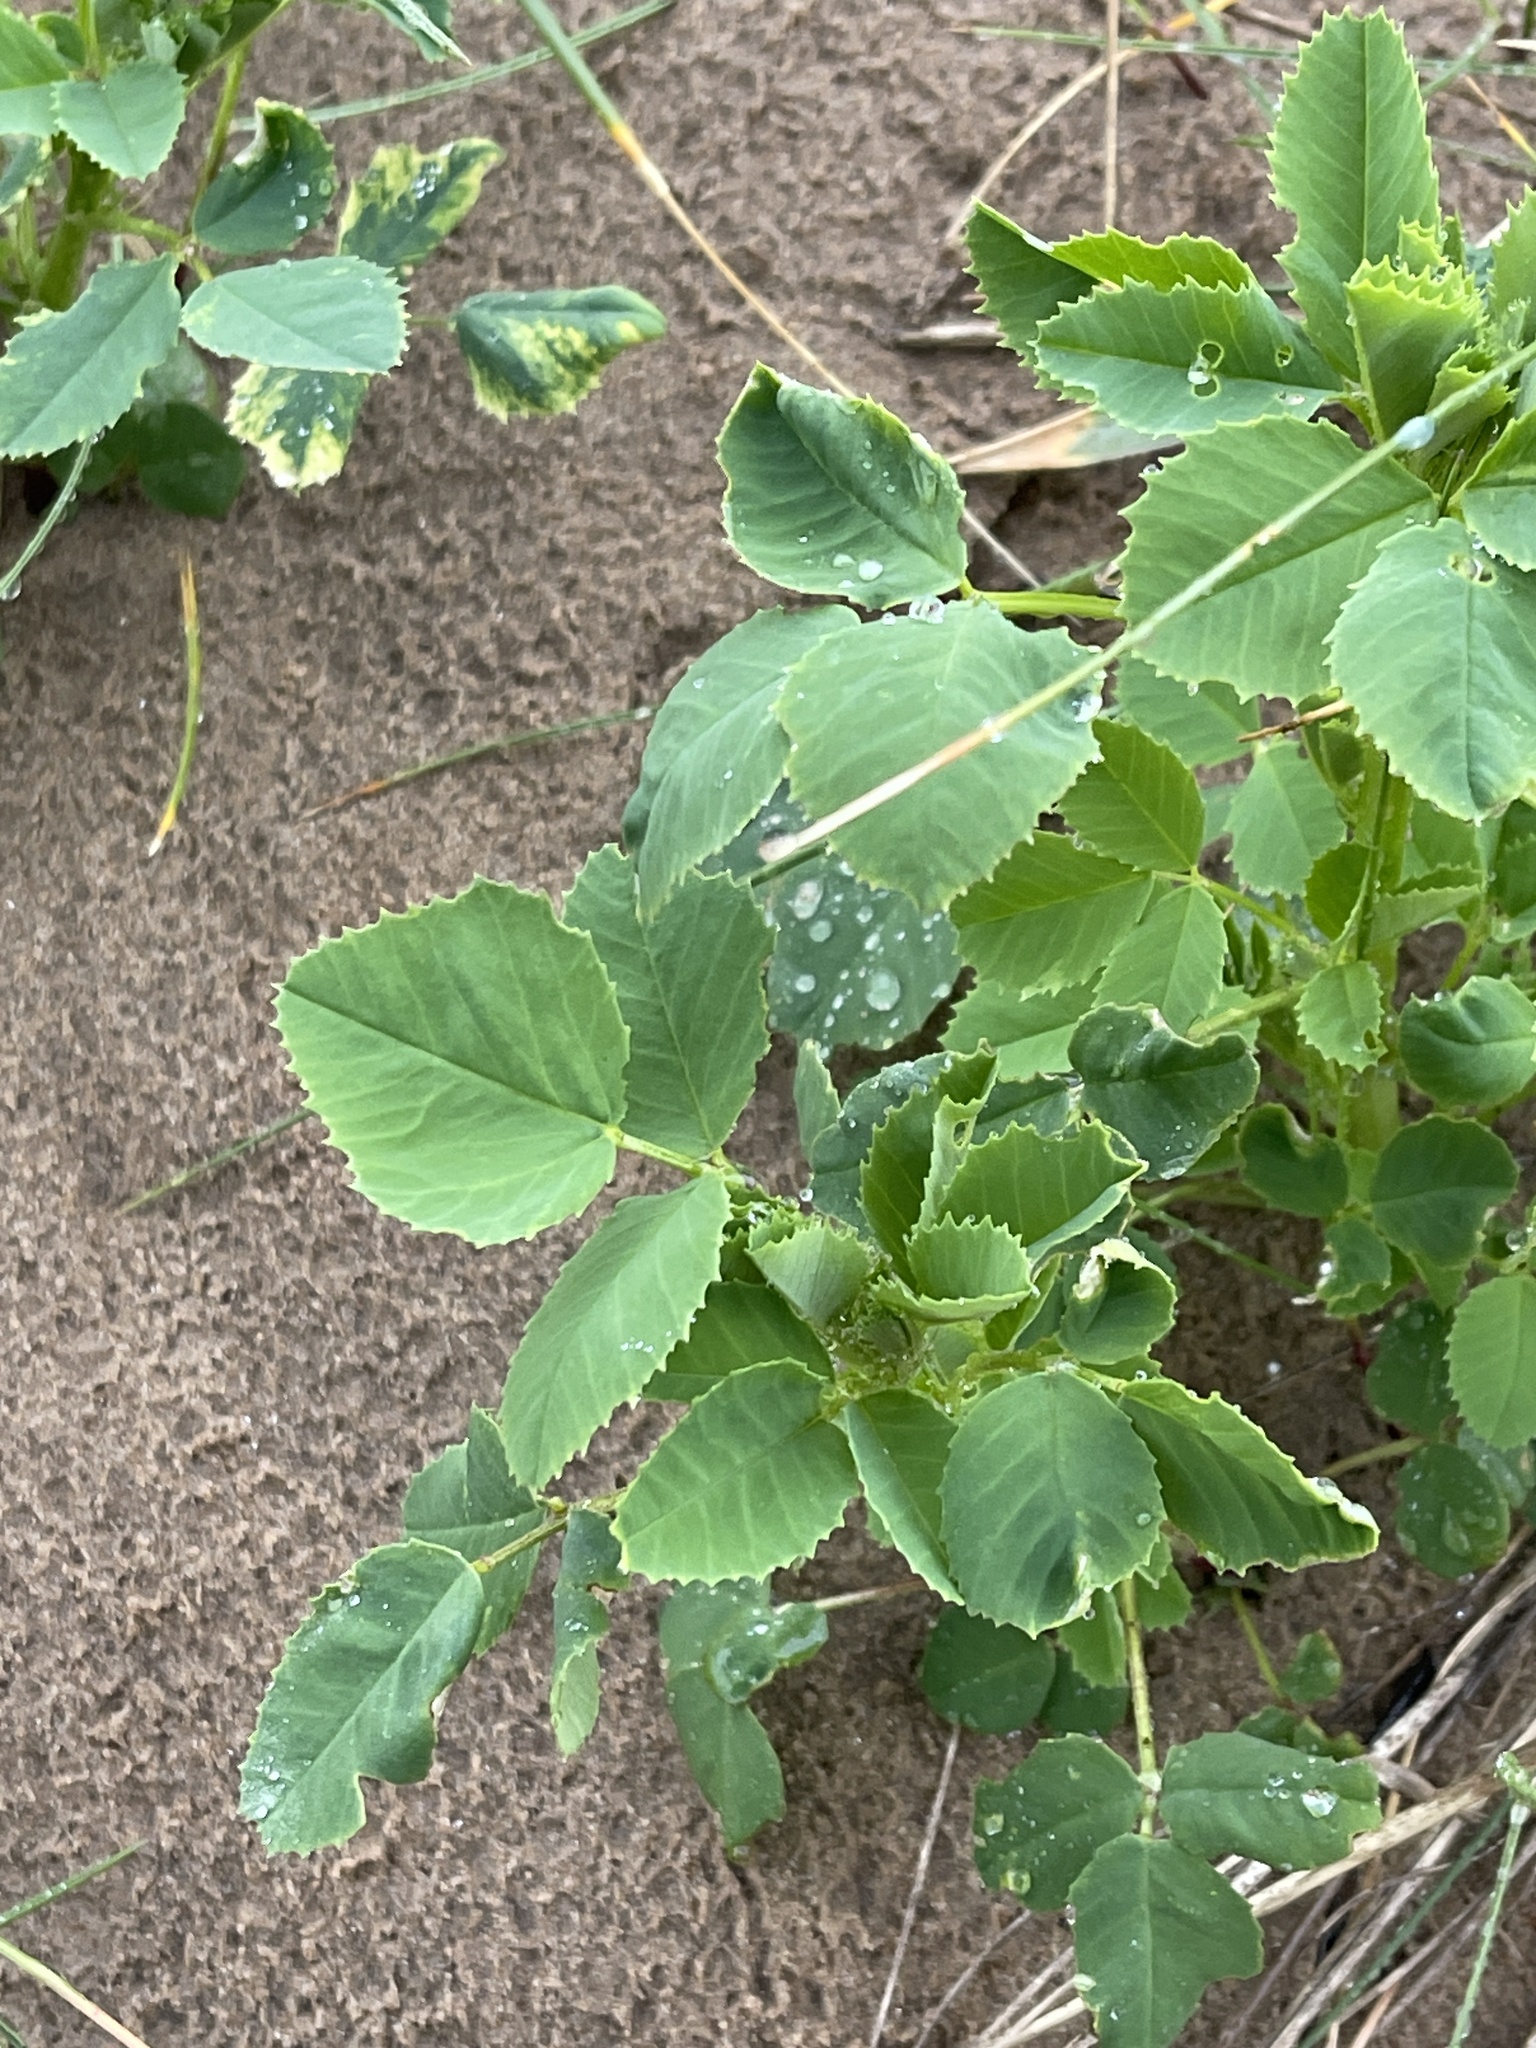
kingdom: Plantae
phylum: Tracheophyta
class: Magnoliopsida
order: Fabales
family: Fabaceae
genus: Melilotus
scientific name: Melilotus albus
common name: White melilot
